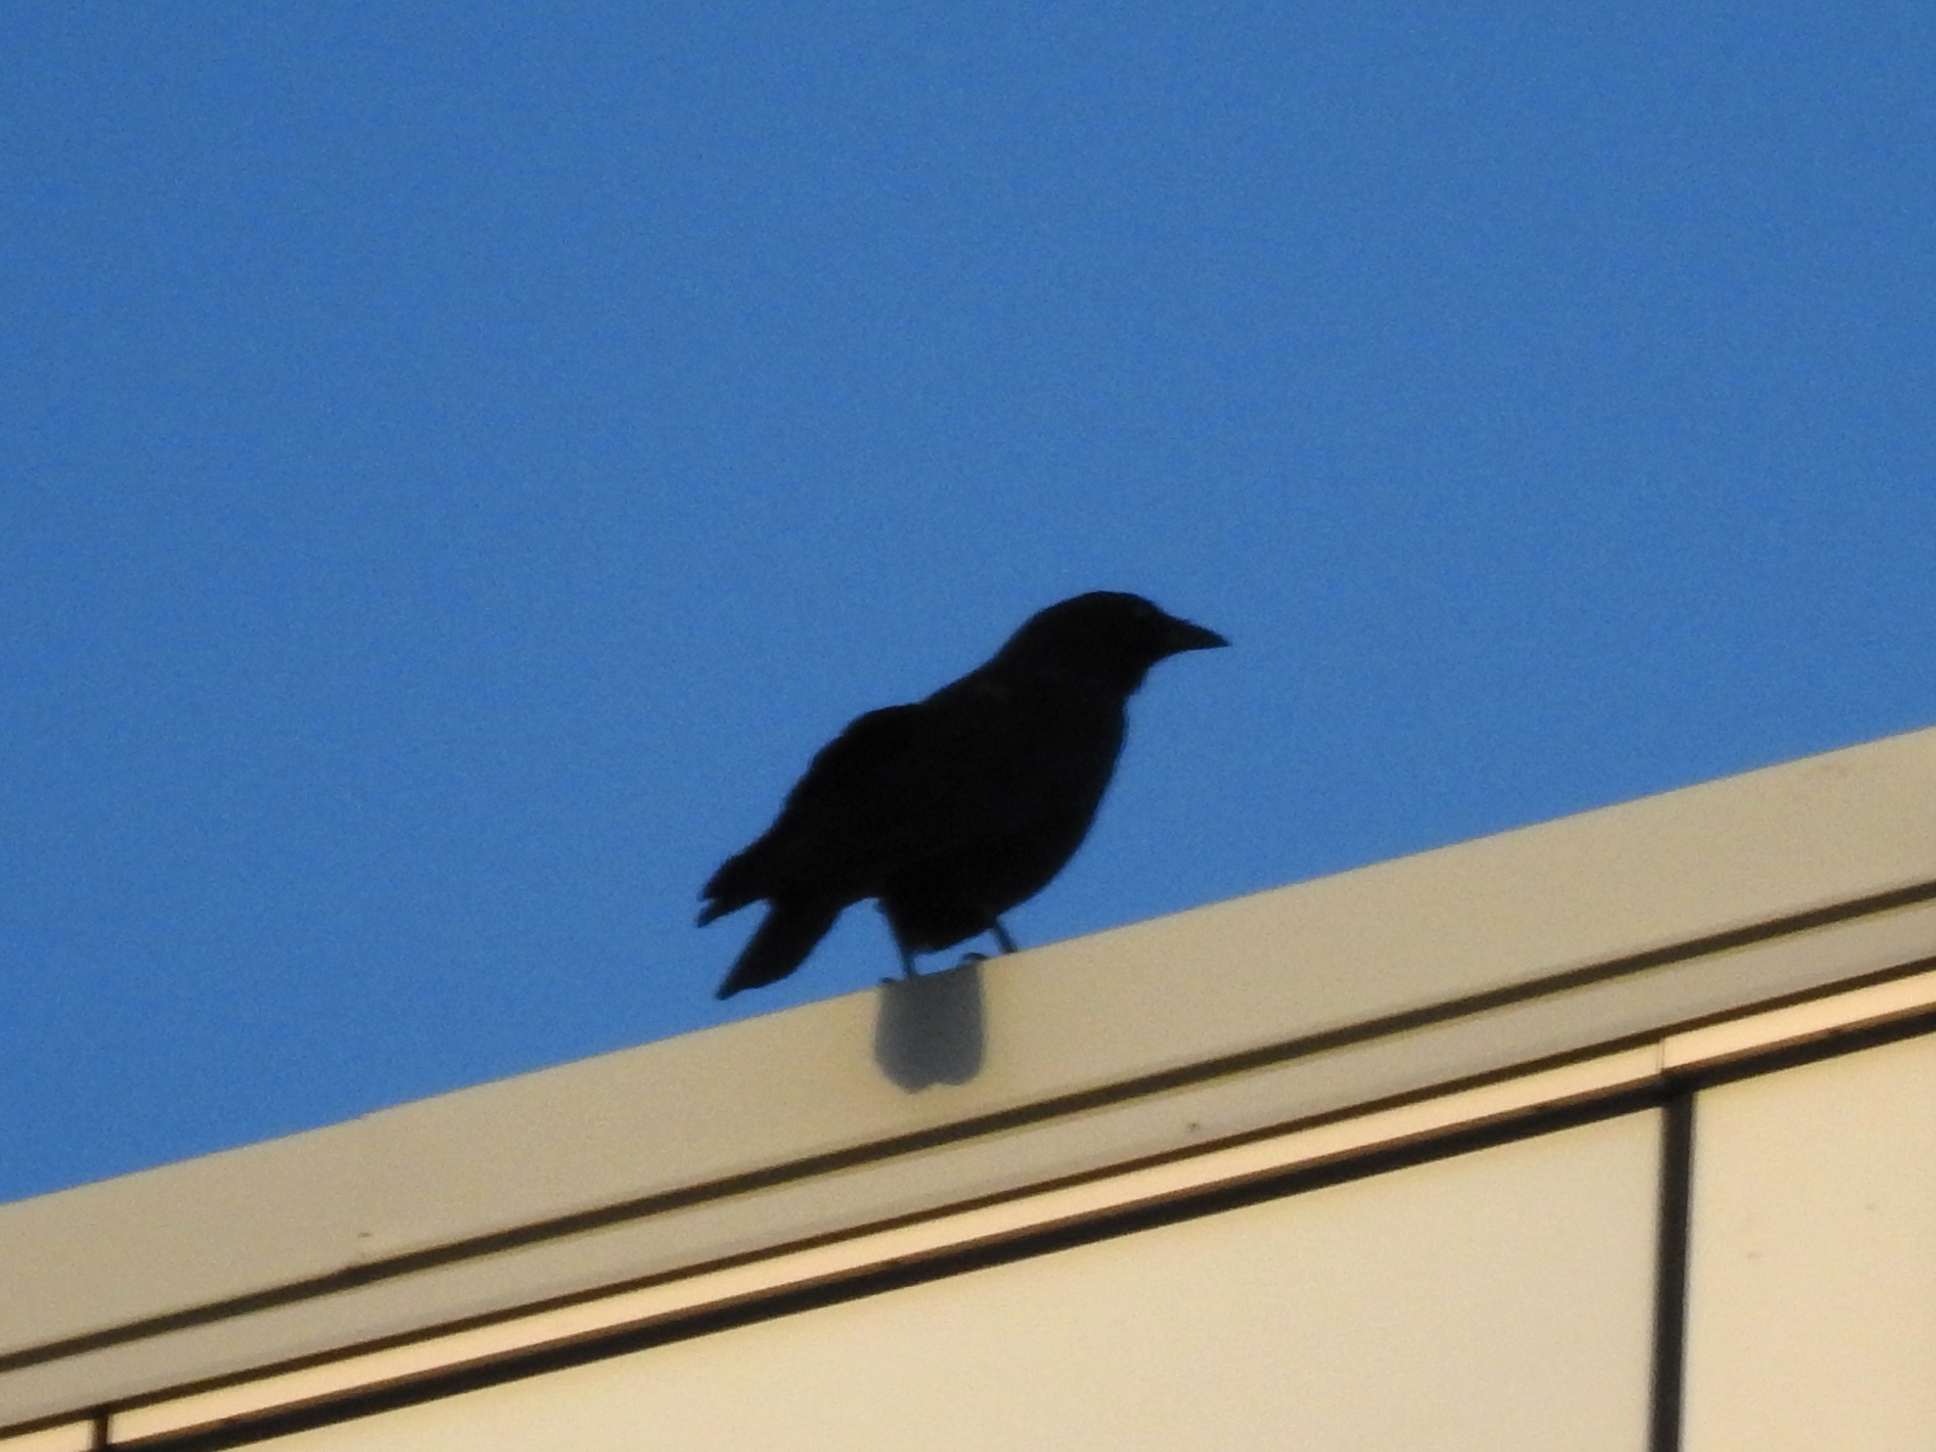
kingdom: Animalia
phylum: Chordata
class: Aves
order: Passeriformes
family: Corvidae
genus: Corvus
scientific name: Corvus brachyrhynchos
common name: American crow
